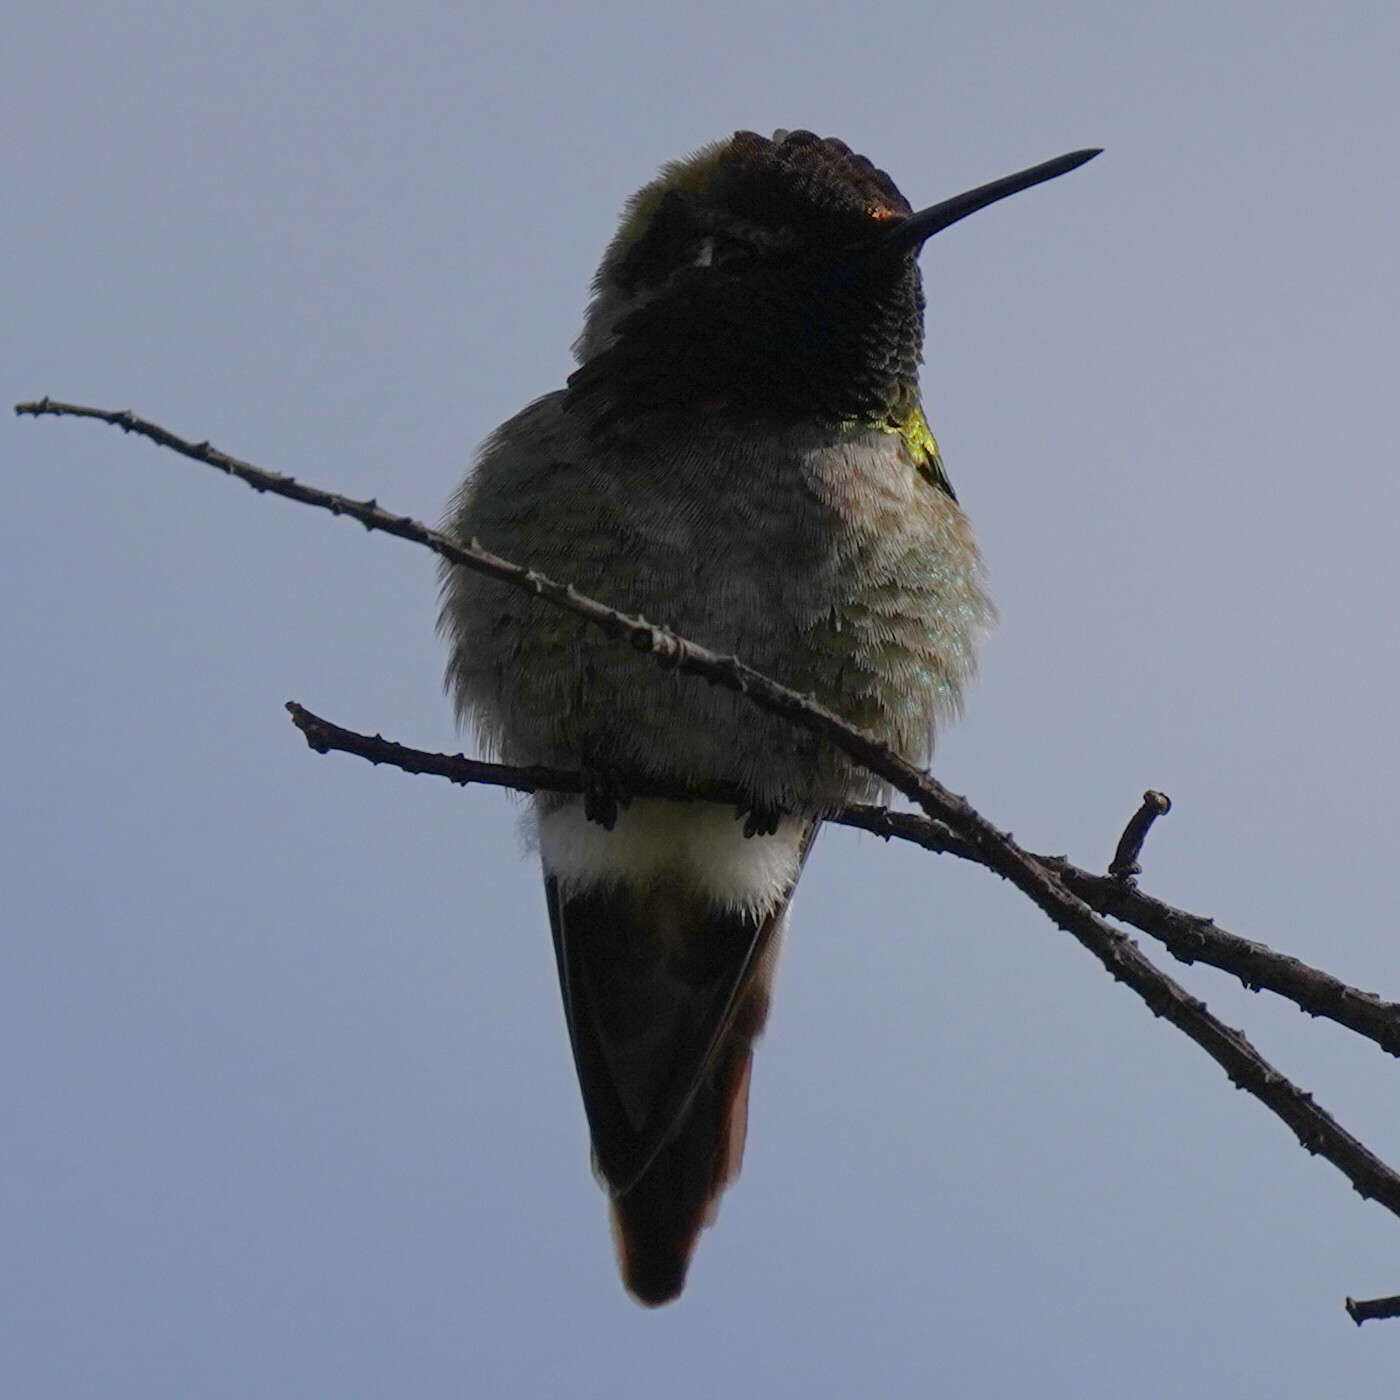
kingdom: Animalia
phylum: Chordata
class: Aves
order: Apodiformes
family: Trochilidae
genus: Calypte
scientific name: Calypte anna
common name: Anna's hummingbird
